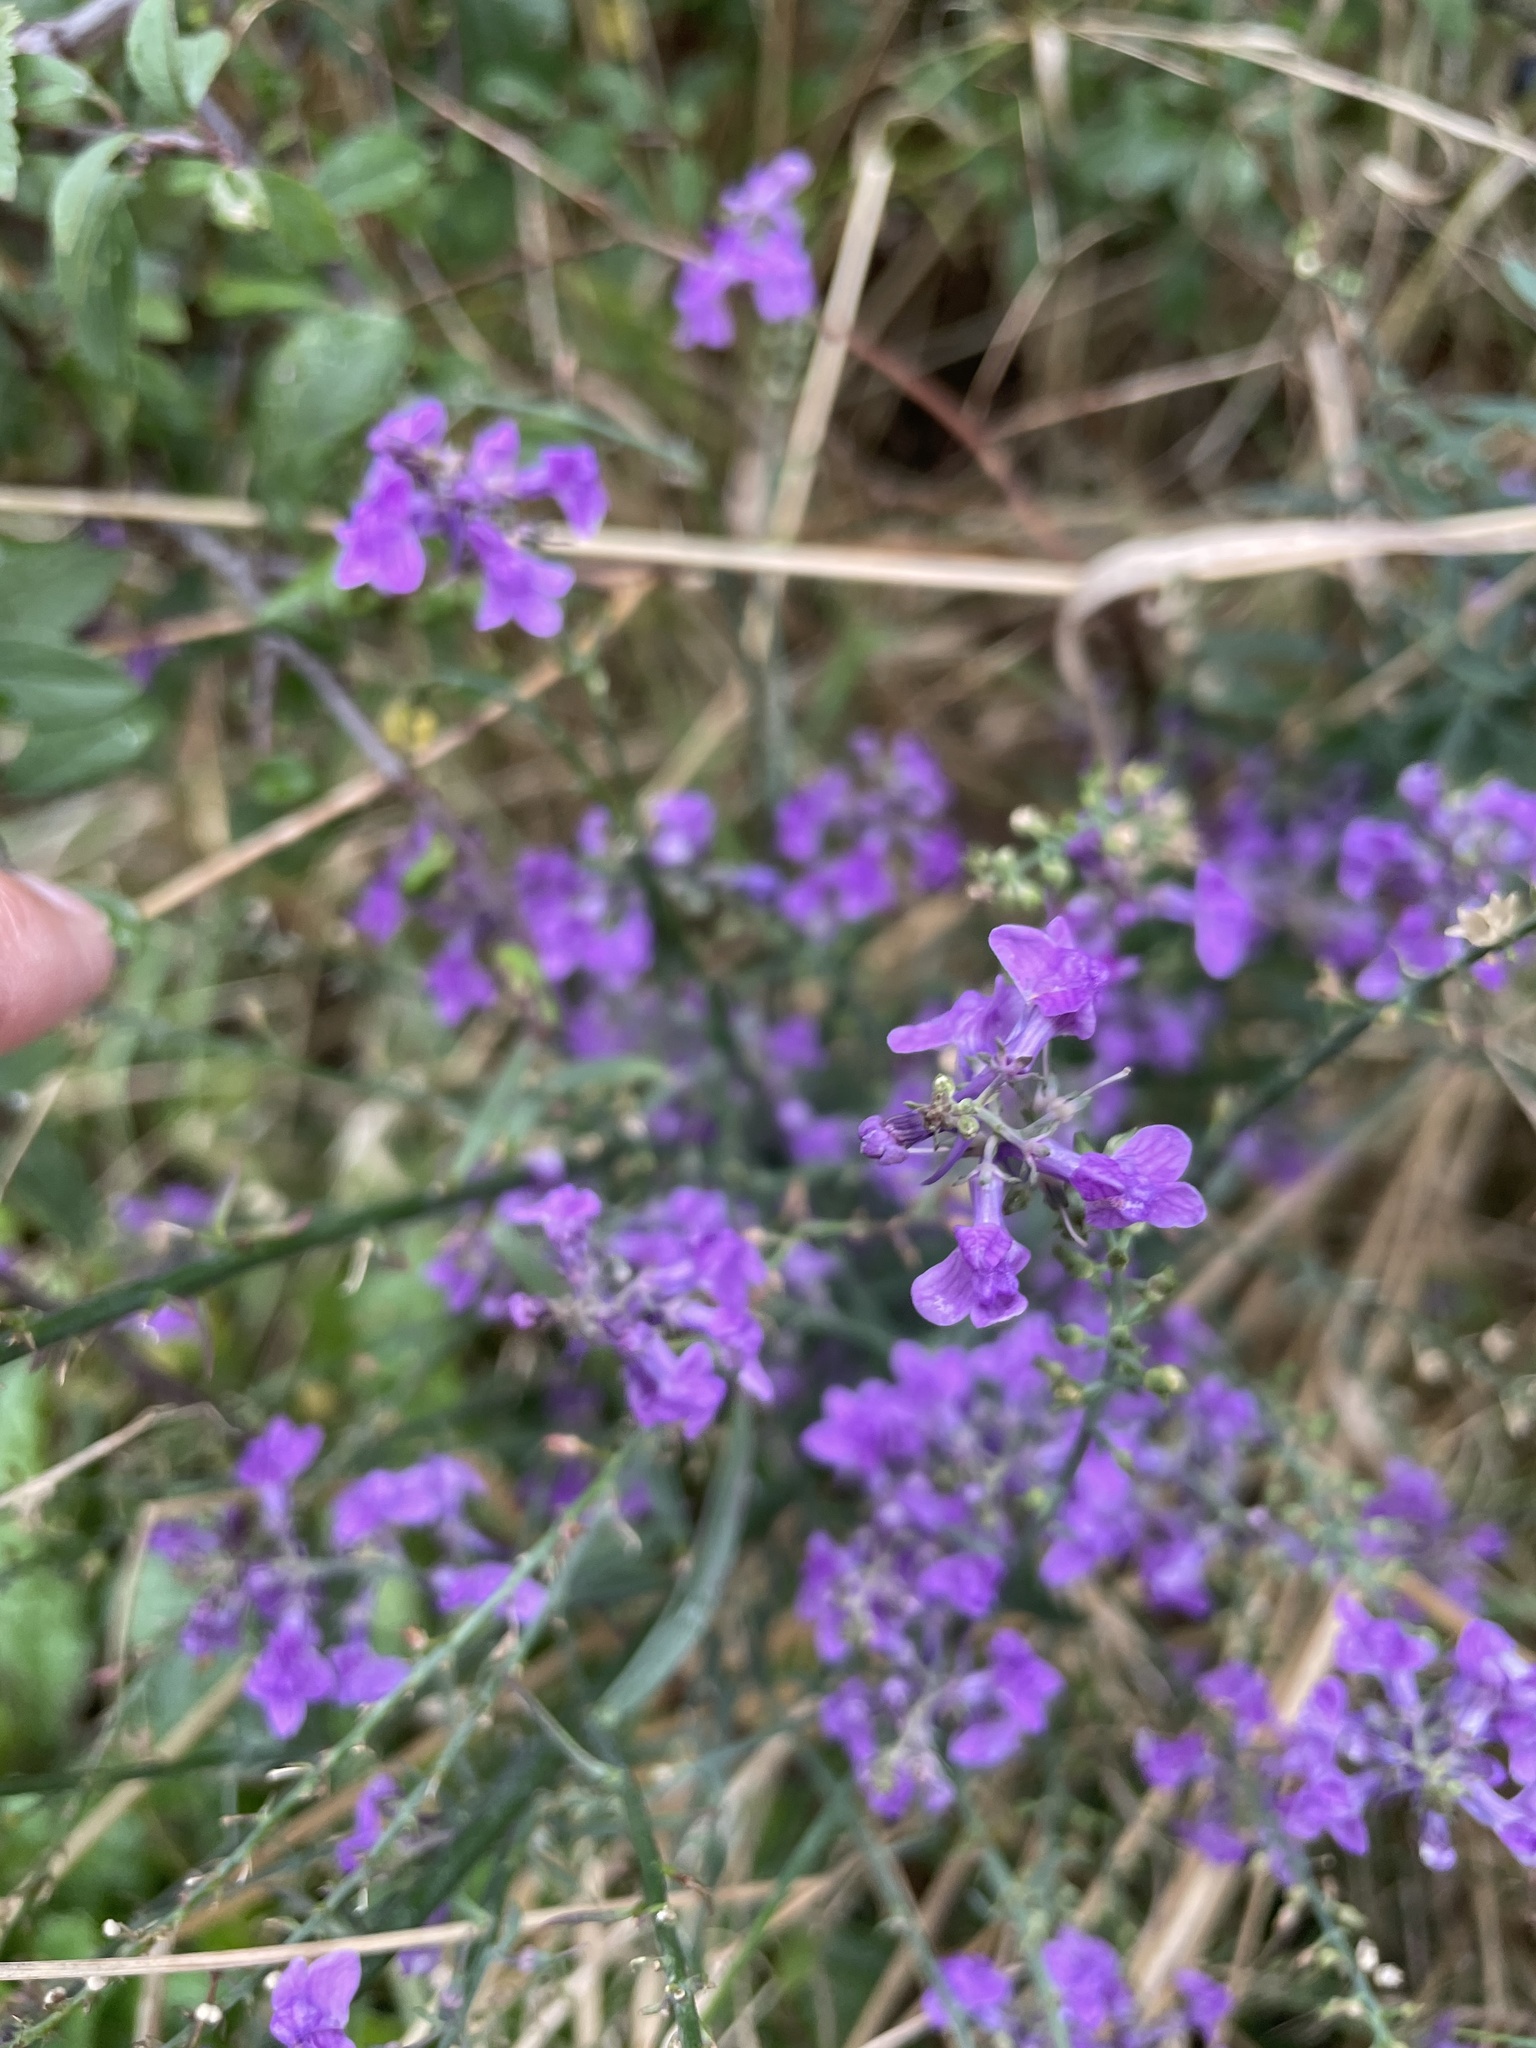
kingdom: Plantae
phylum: Tracheophyta
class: Magnoliopsida
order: Lamiales
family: Plantaginaceae
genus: Linaria
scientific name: Linaria purpurea
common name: Purple toadflax
